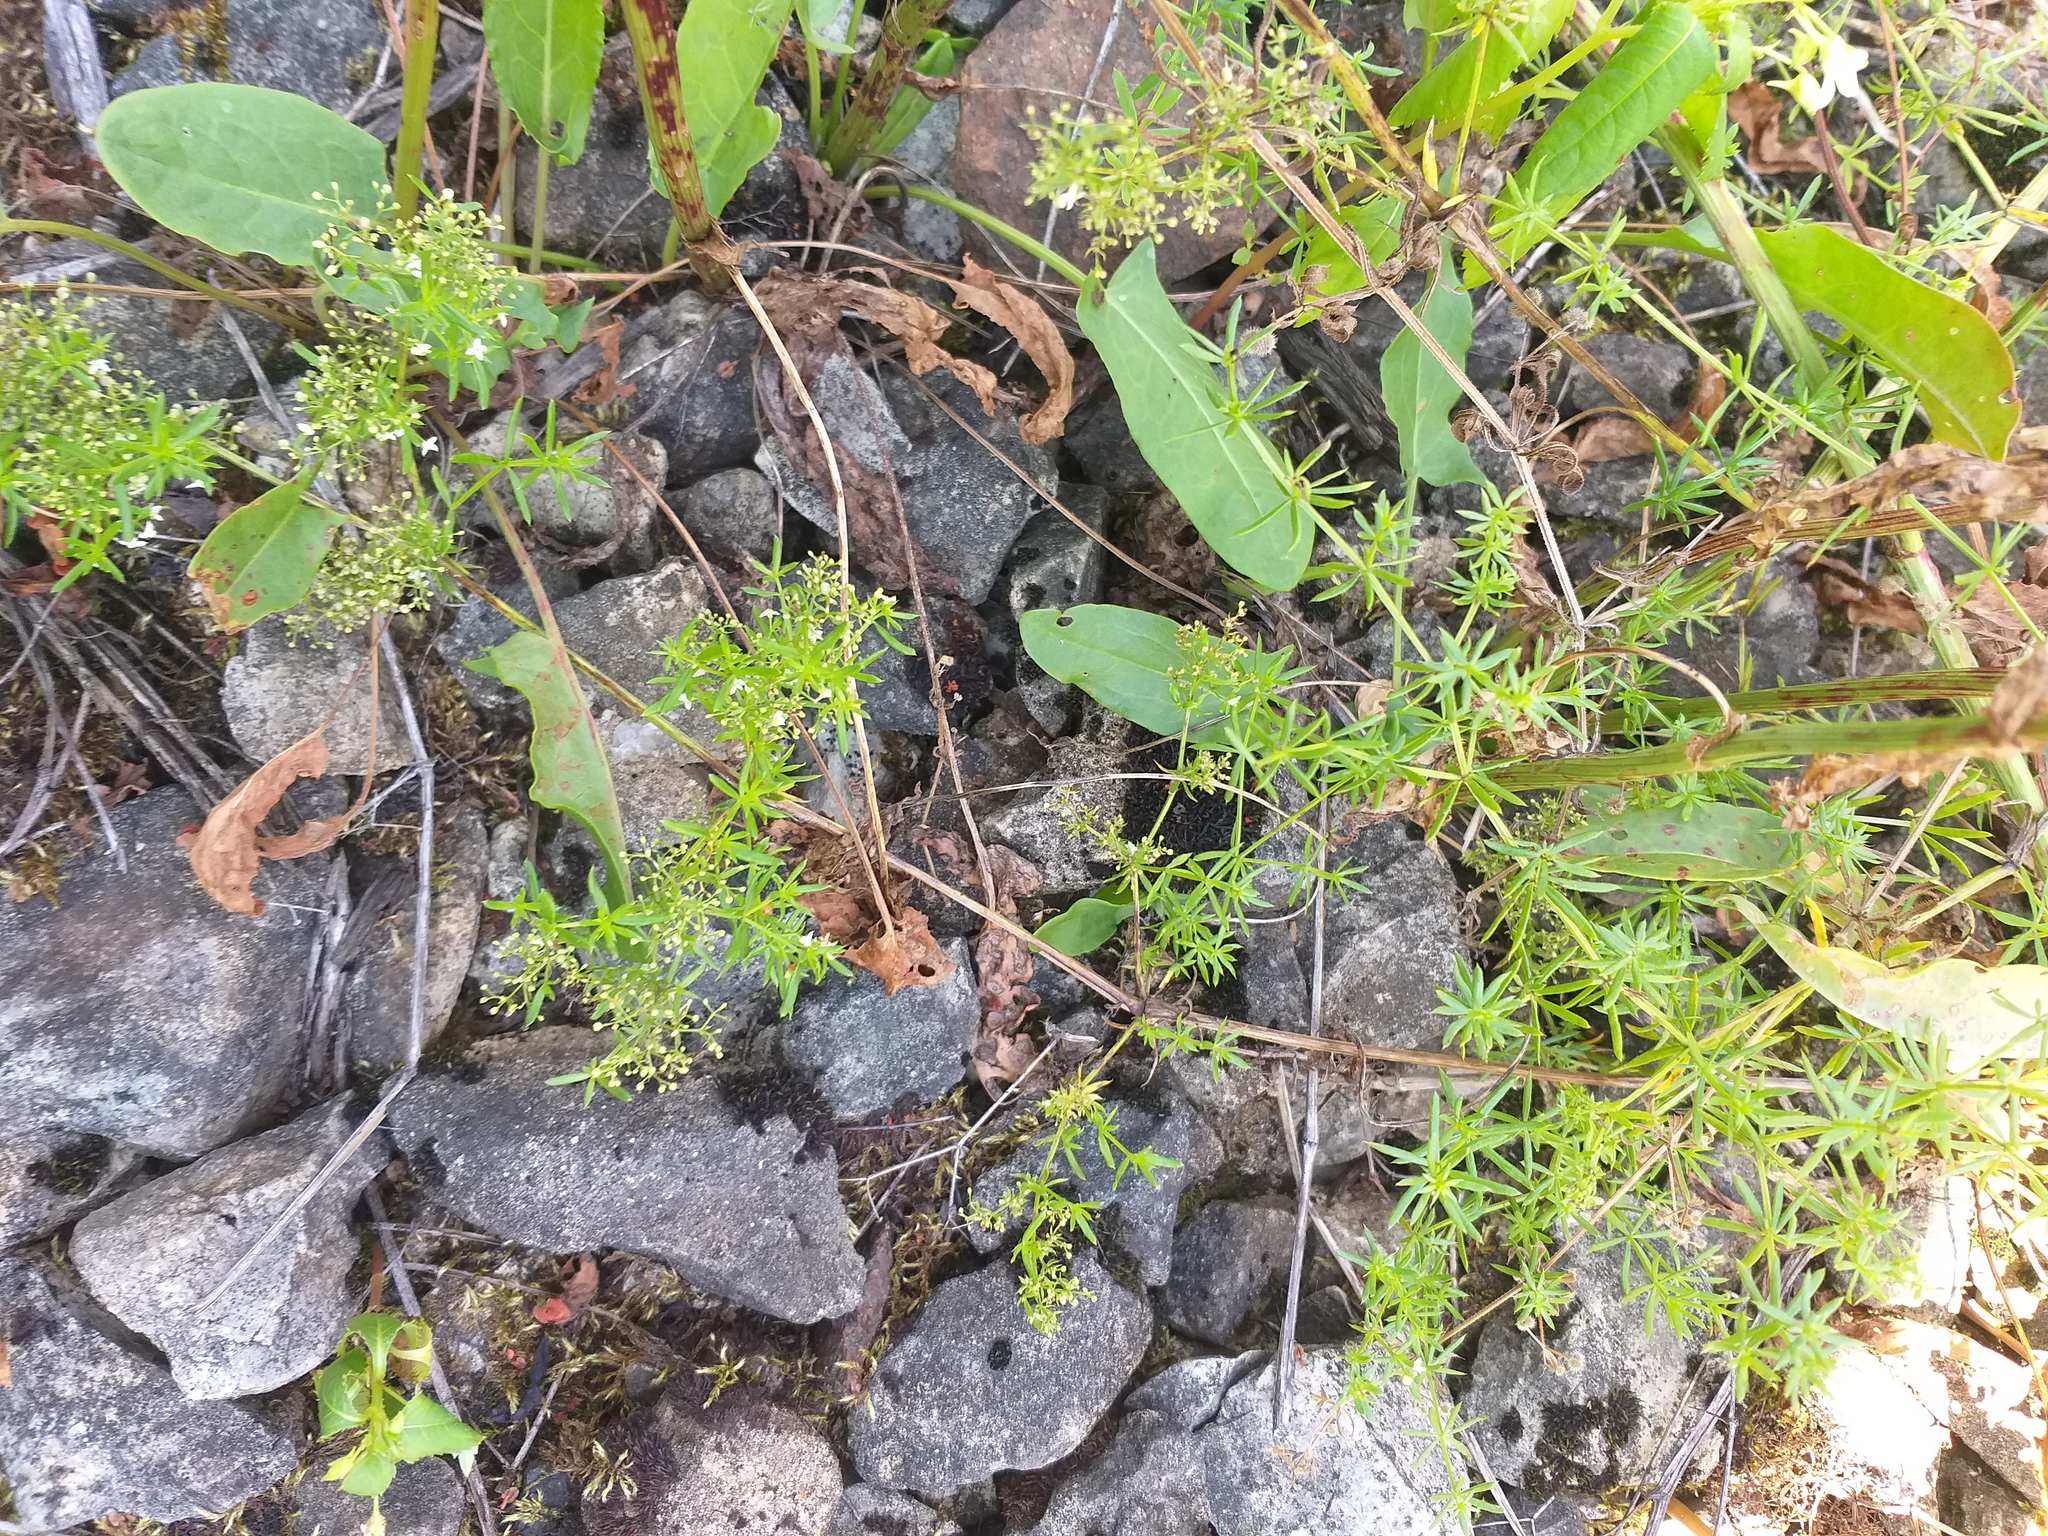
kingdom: Plantae
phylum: Tracheophyta
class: Magnoliopsida
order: Gentianales
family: Rubiaceae
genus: Galium
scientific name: Galium mollugo
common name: Hedge bedstraw
